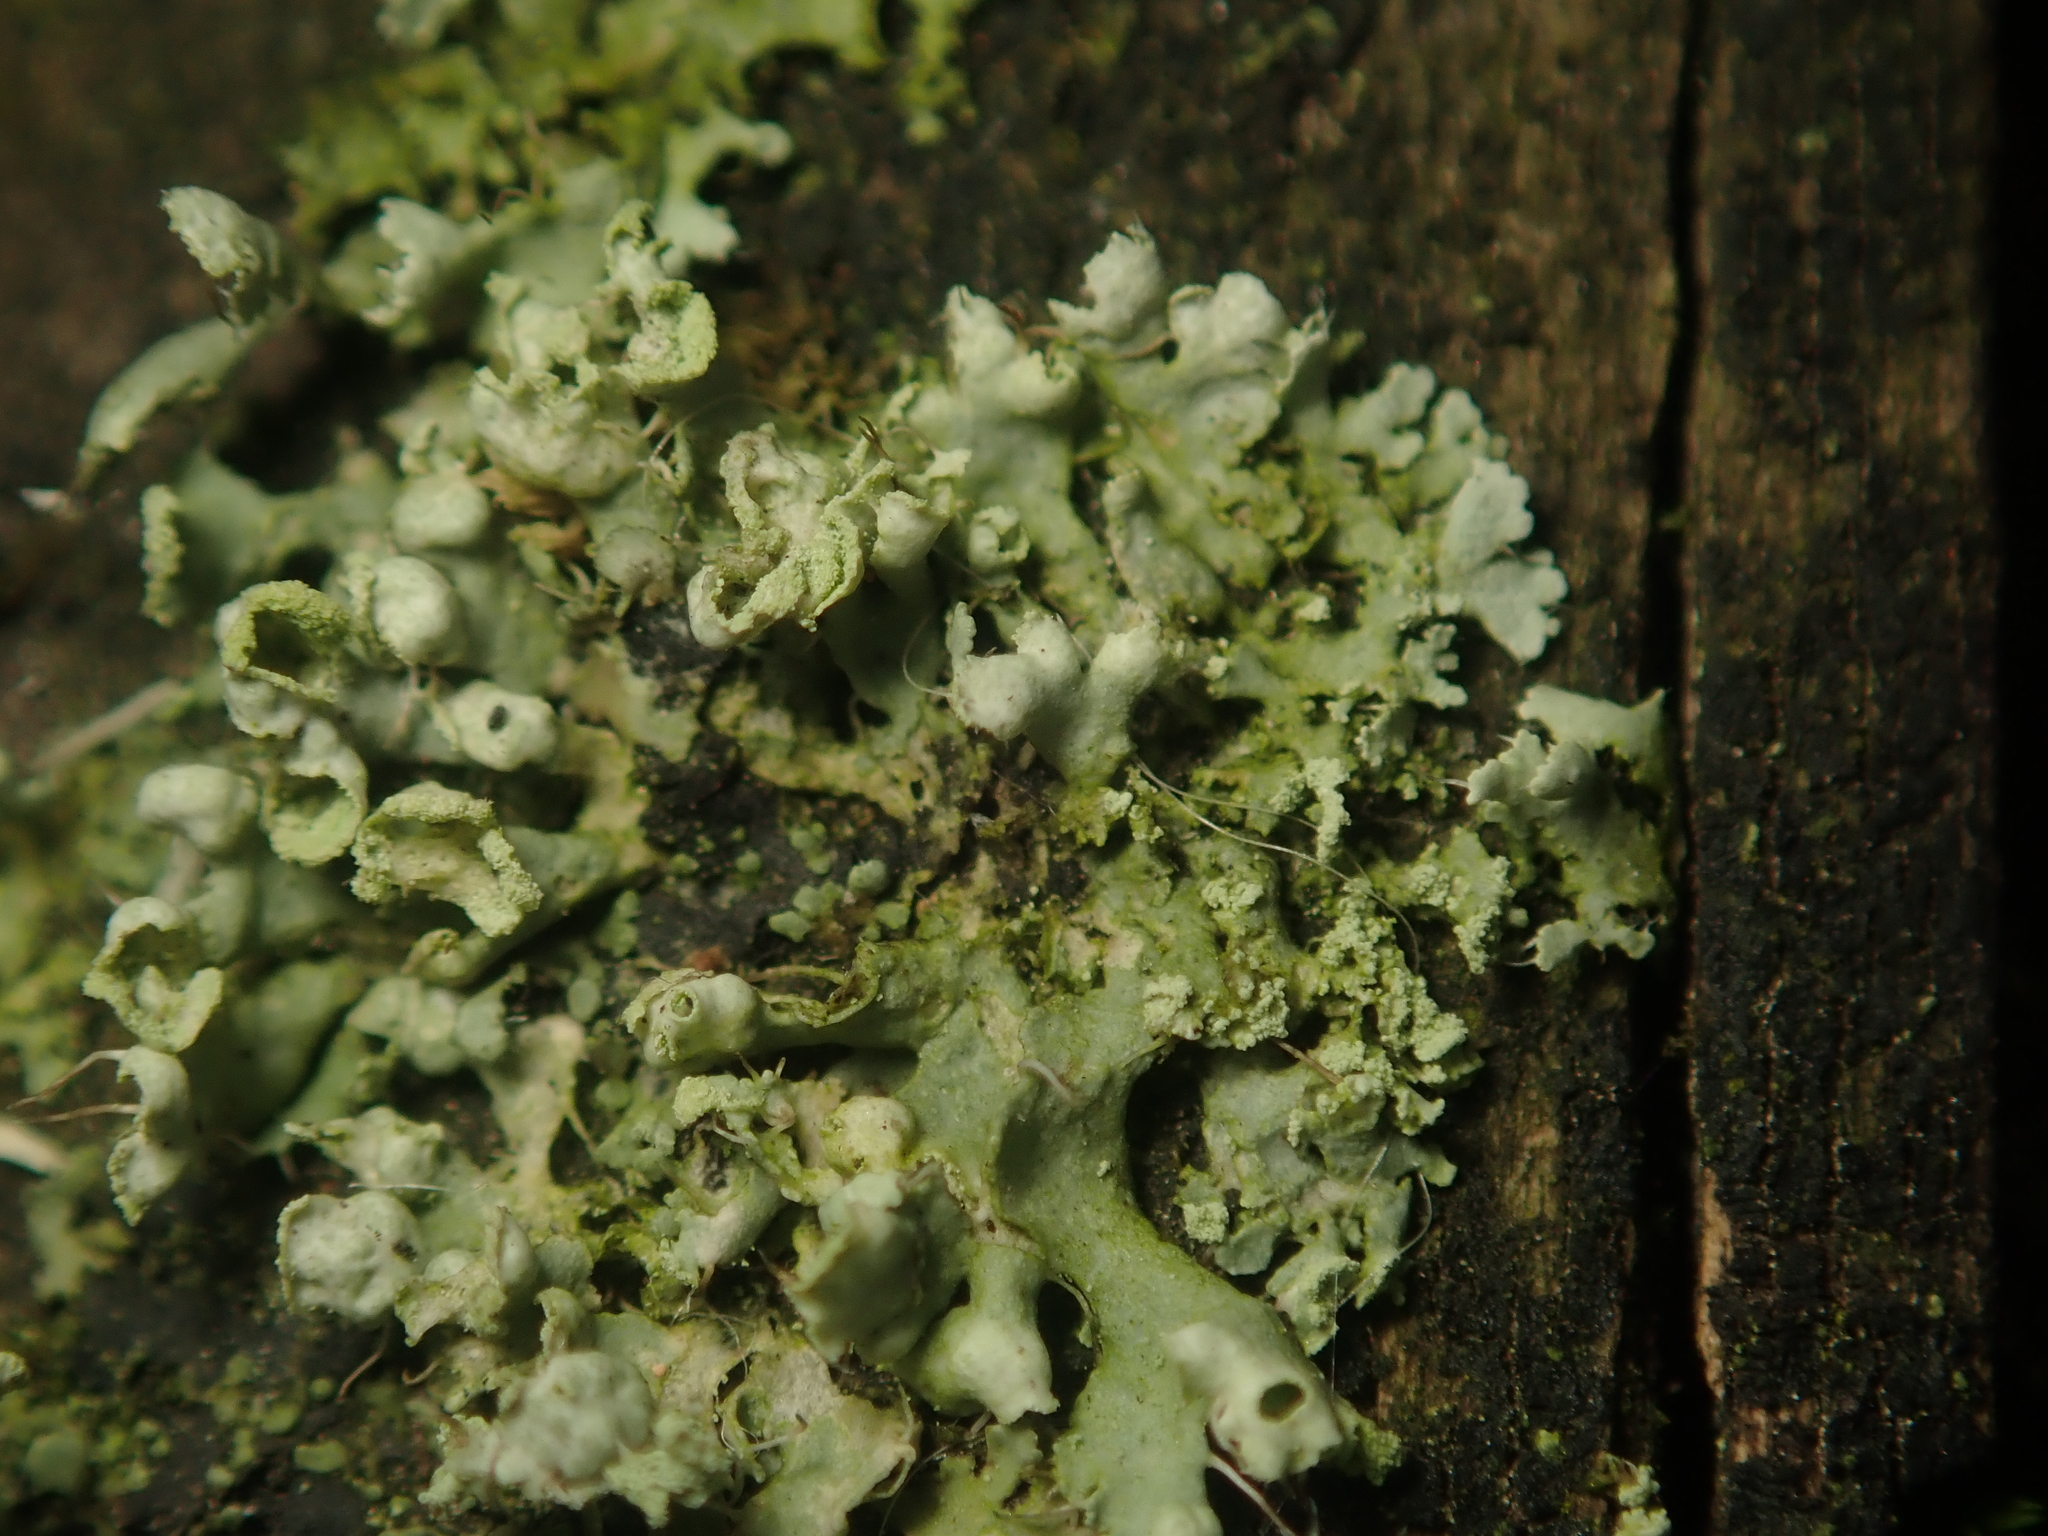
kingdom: Fungi
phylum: Ascomycota
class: Lecanoromycetes
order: Caliciales
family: Physciaceae
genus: Physcia
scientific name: Physcia adscendens
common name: Hooded rosette lichen
